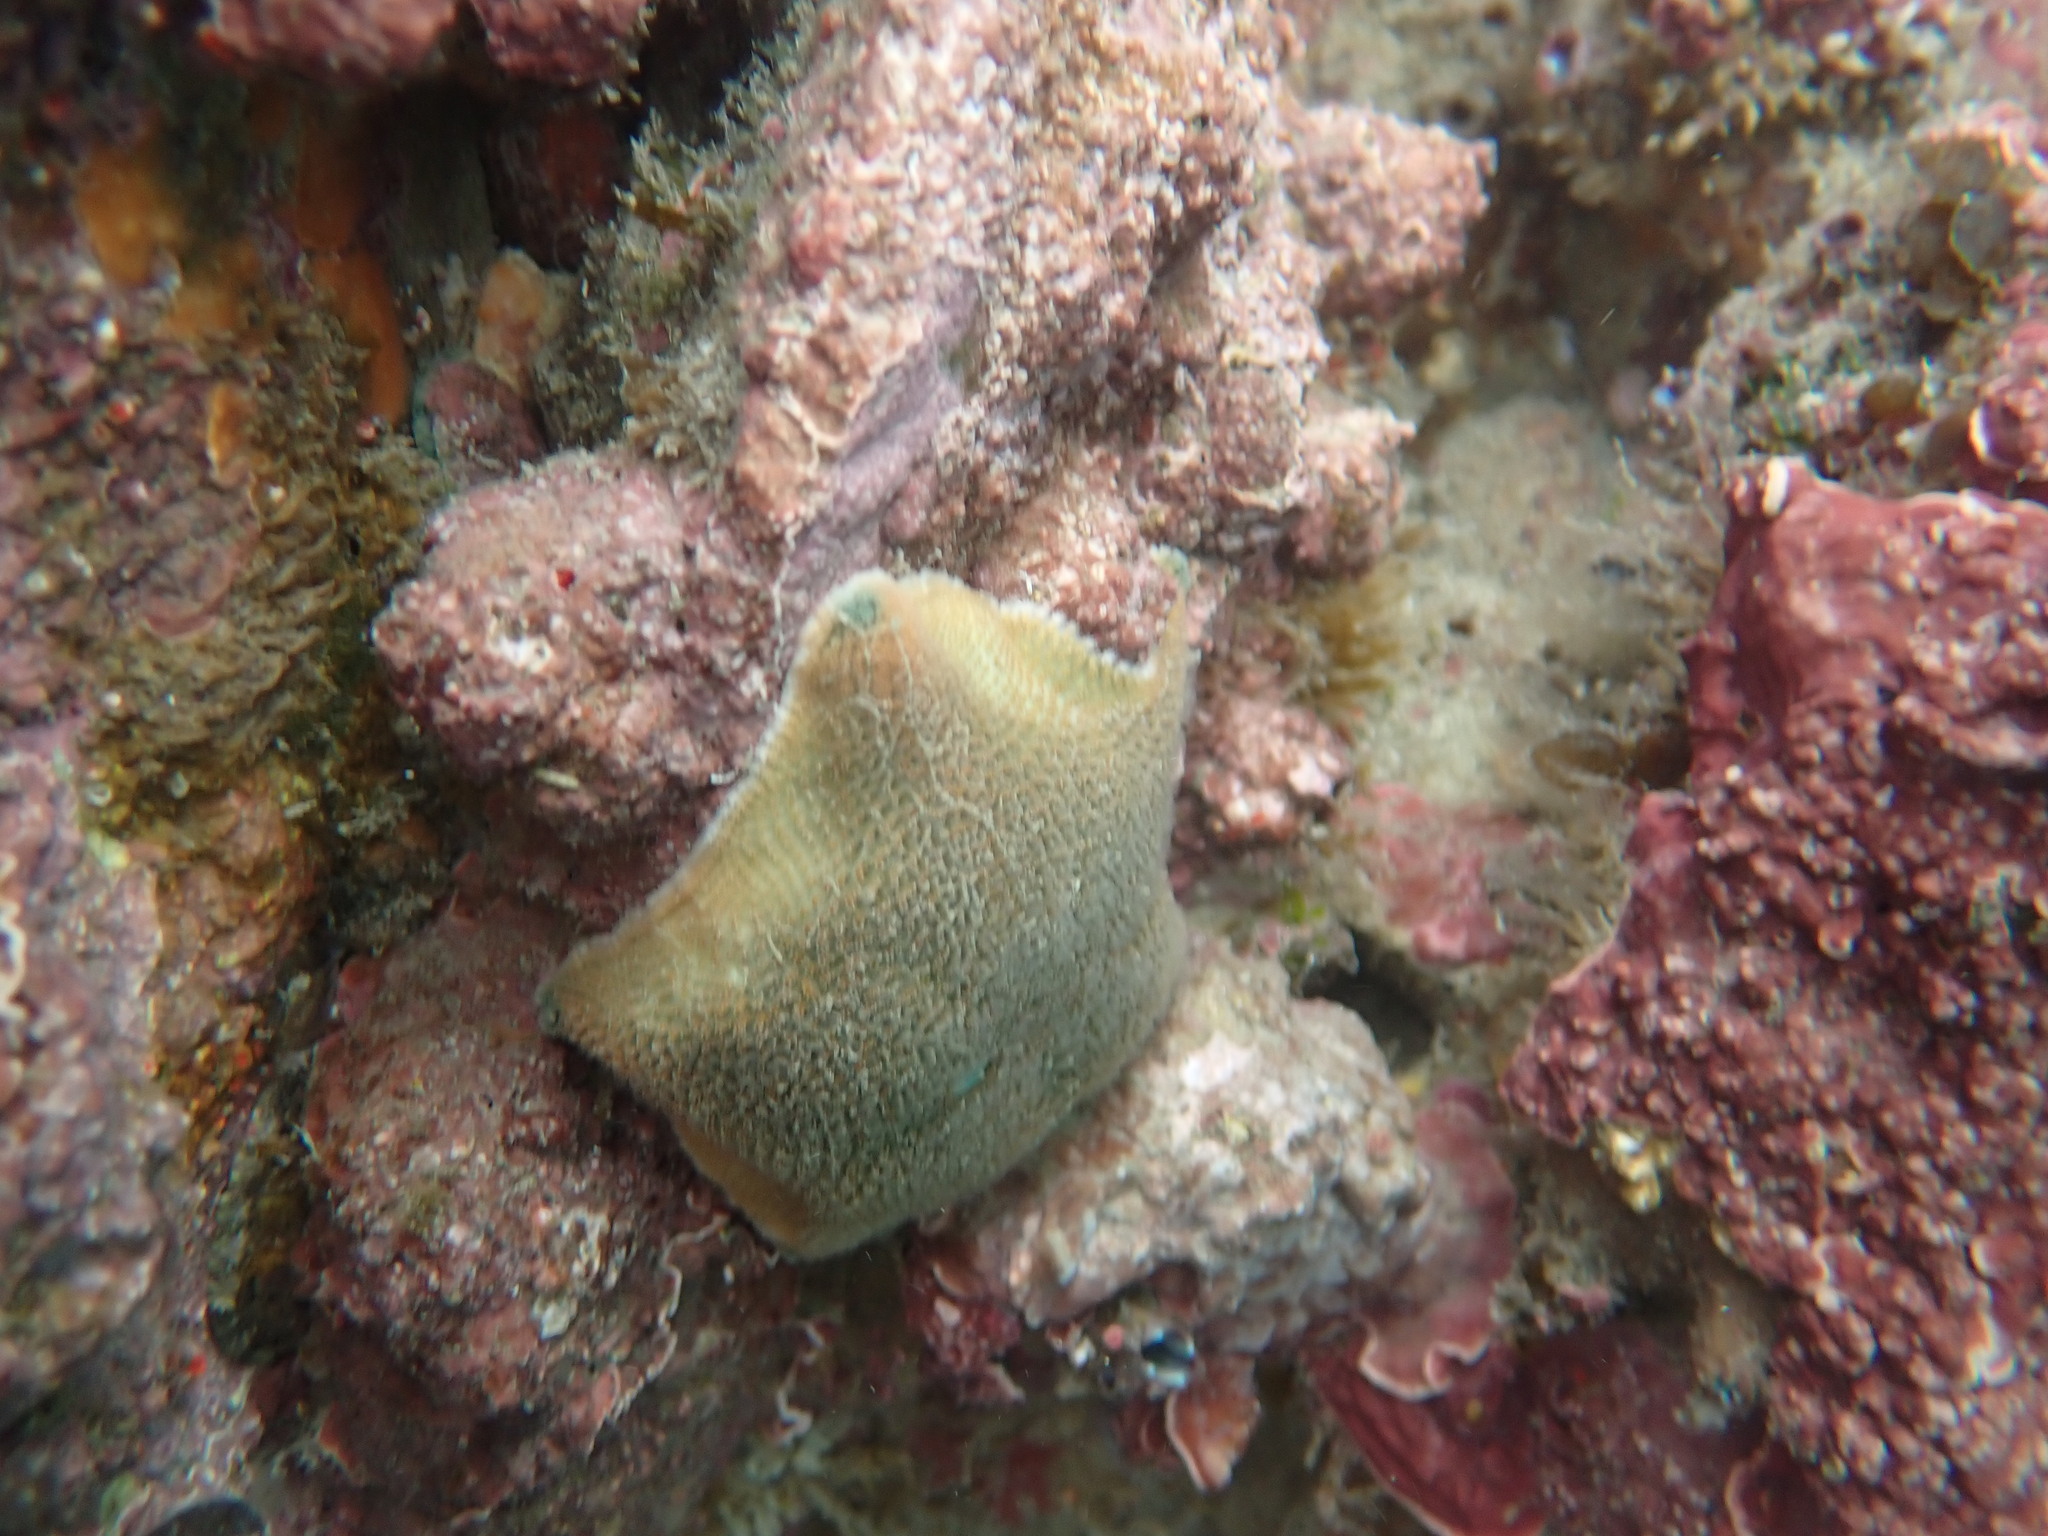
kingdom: Animalia
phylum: Echinodermata
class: Asteroidea
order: Valvatida
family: Asterinidae
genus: Patiriella
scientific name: Patiriella regularis
